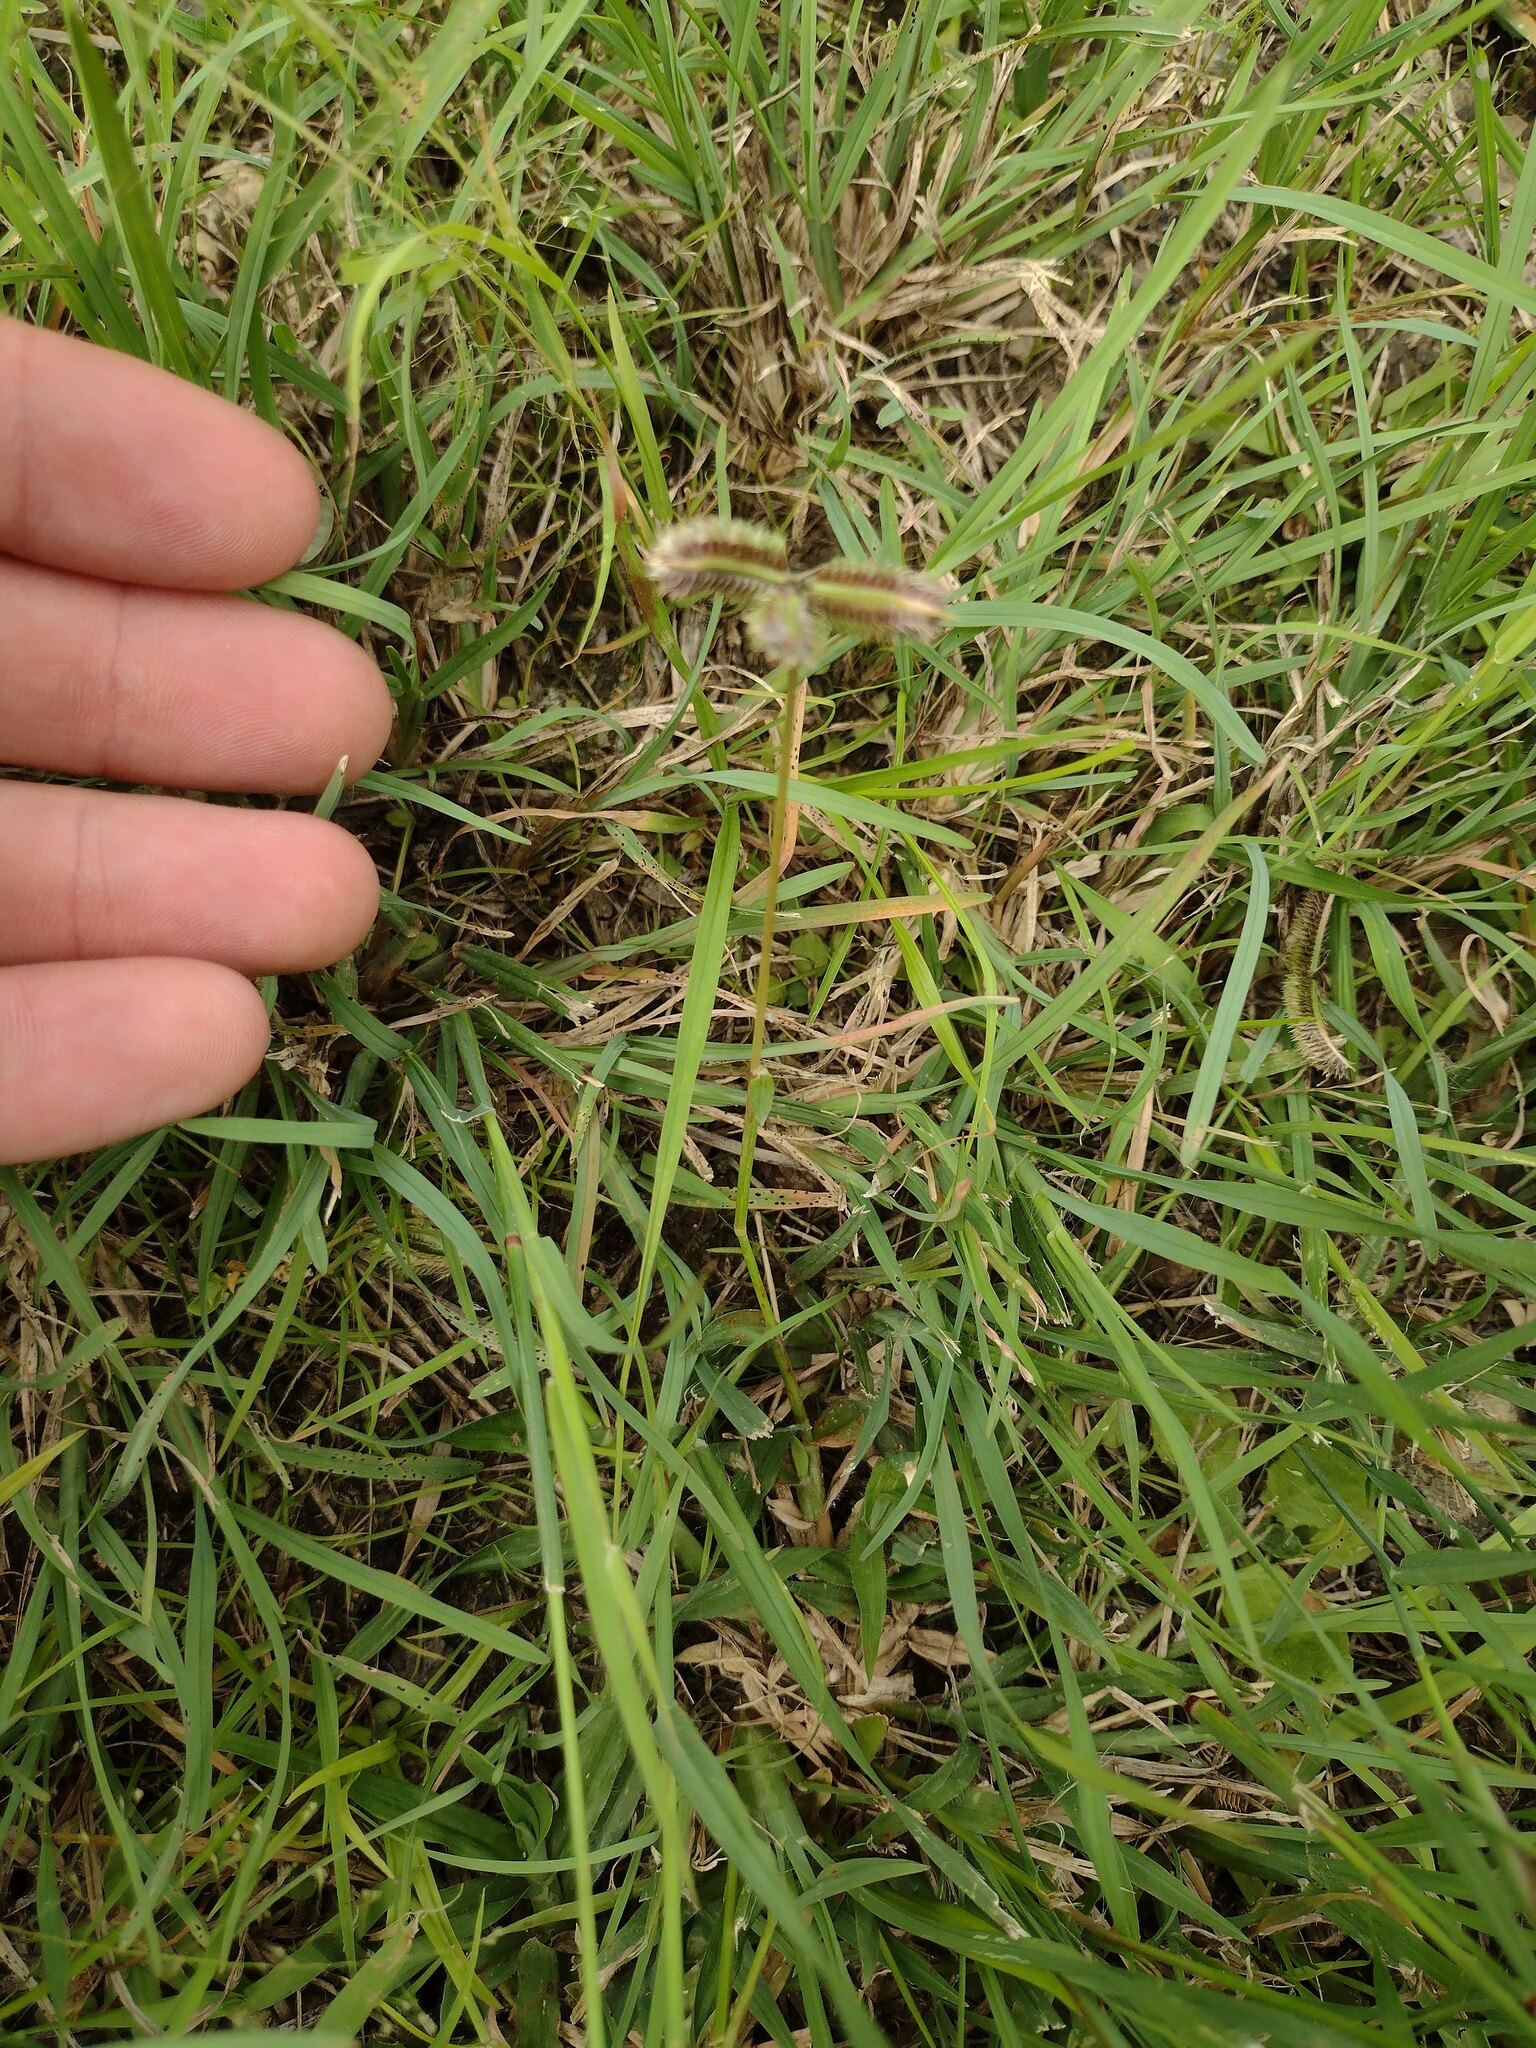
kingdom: Plantae
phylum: Tracheophyta
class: Liliopsida
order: Poales
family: Poaceae
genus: Dactyloctenium
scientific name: Dactyloctenium aegyptium
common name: Egyptian grass
